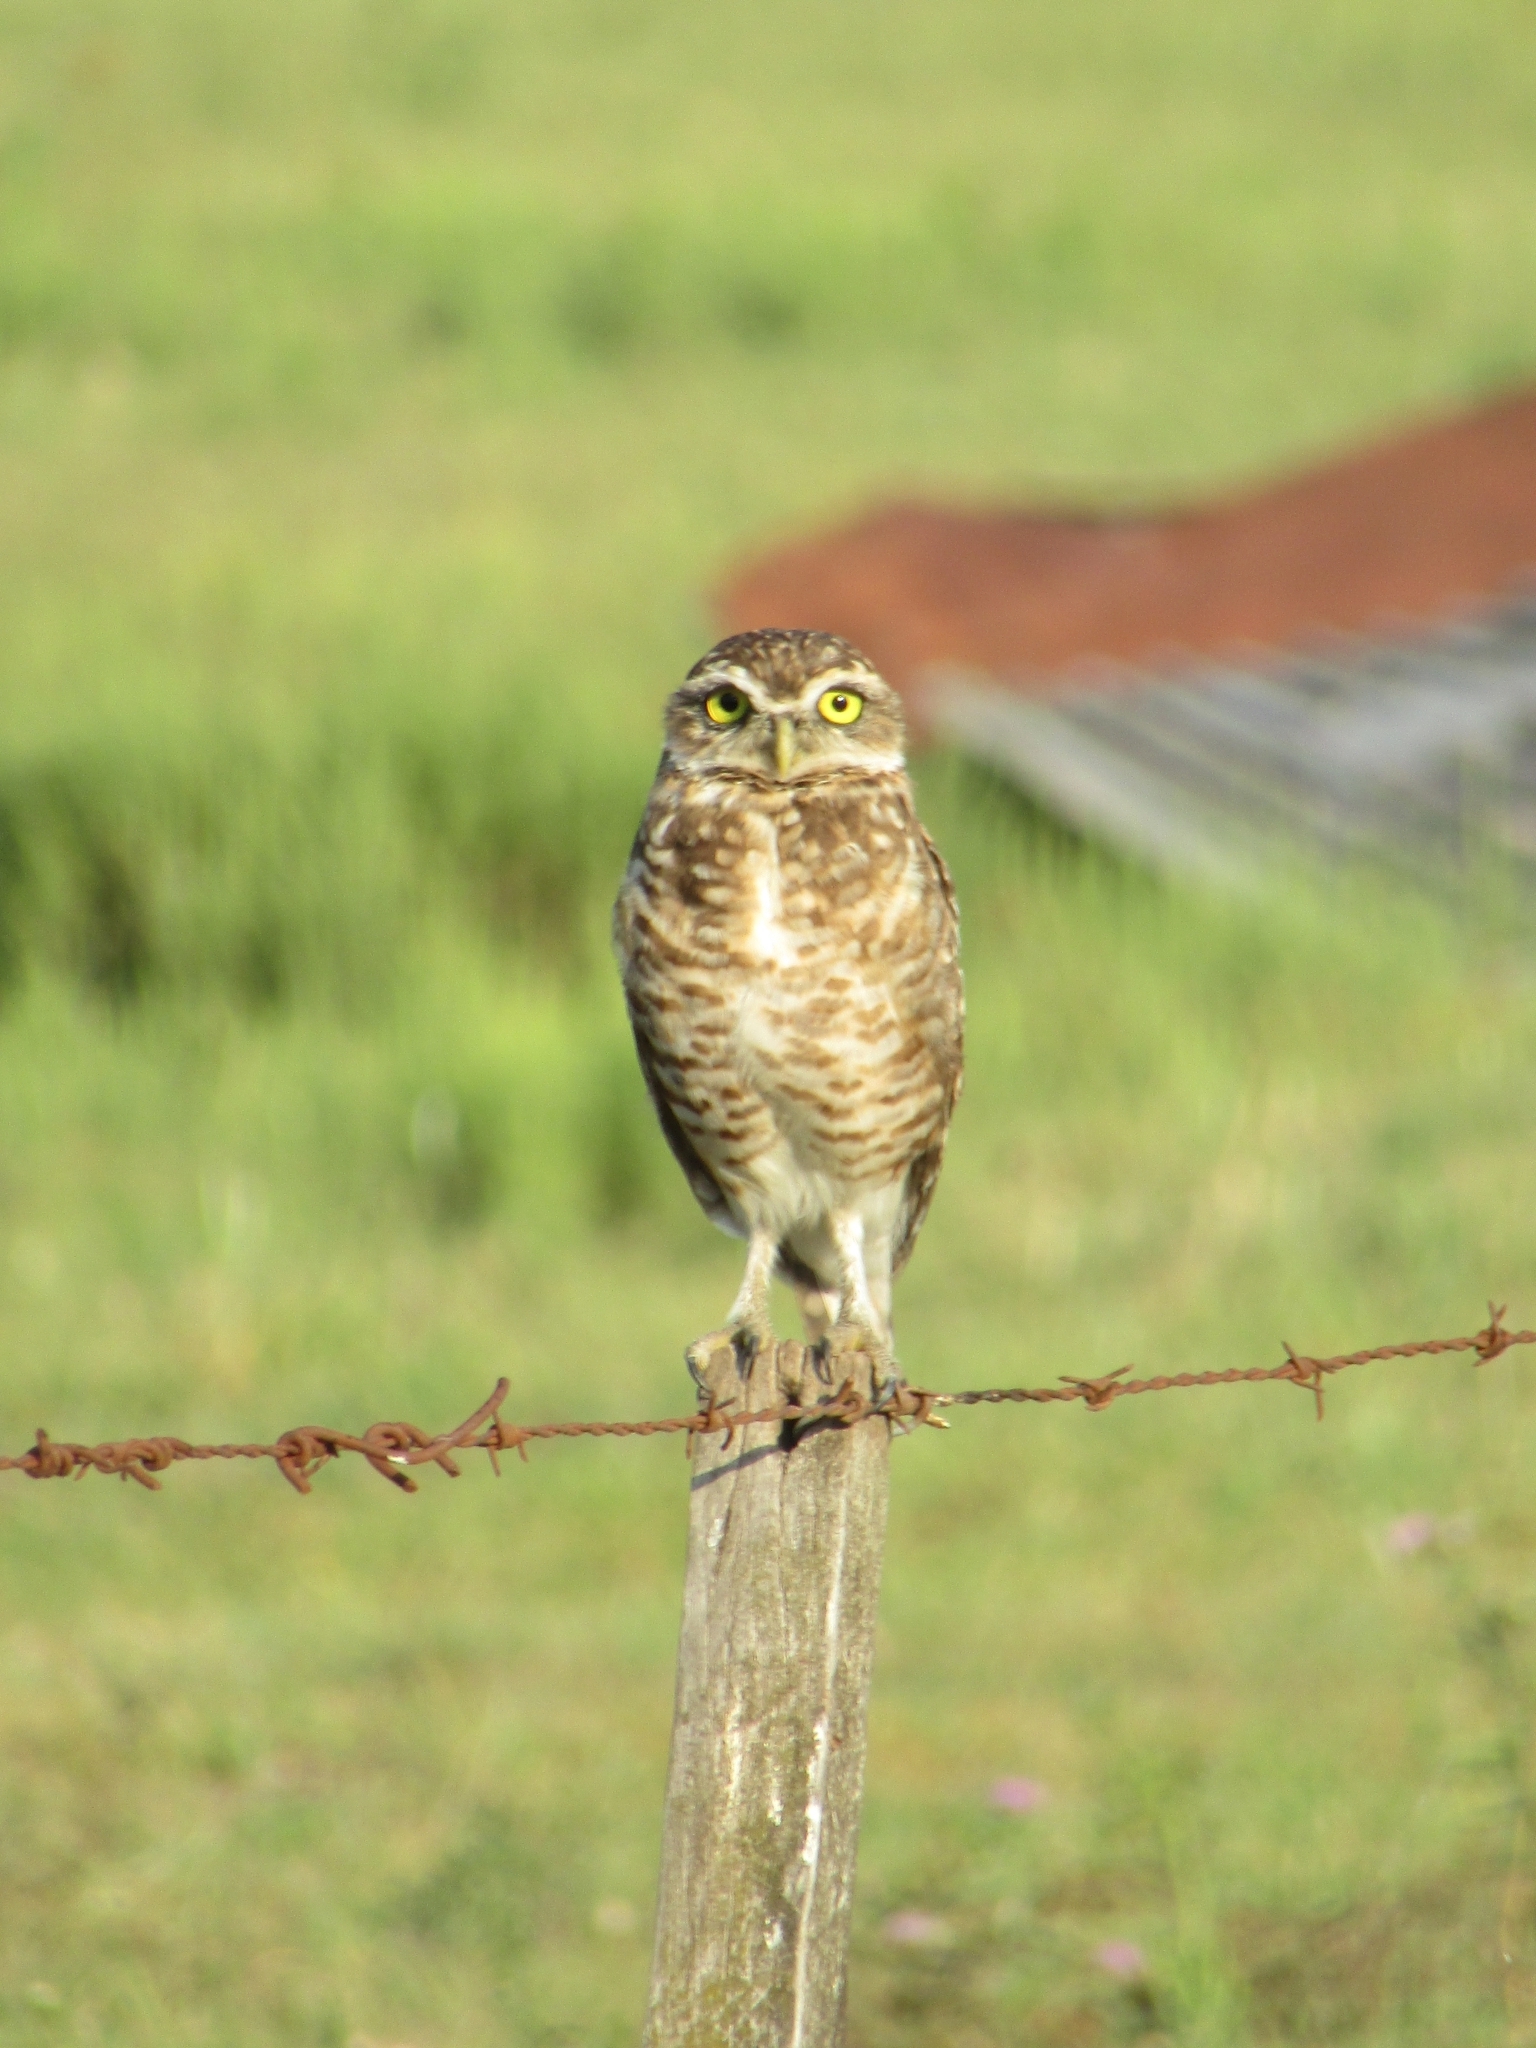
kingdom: Animalia
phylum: Chordata
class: Aves
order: Strigiformes
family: Strigidae
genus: Athene
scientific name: Athene cunicularia
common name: Burrowing owl
